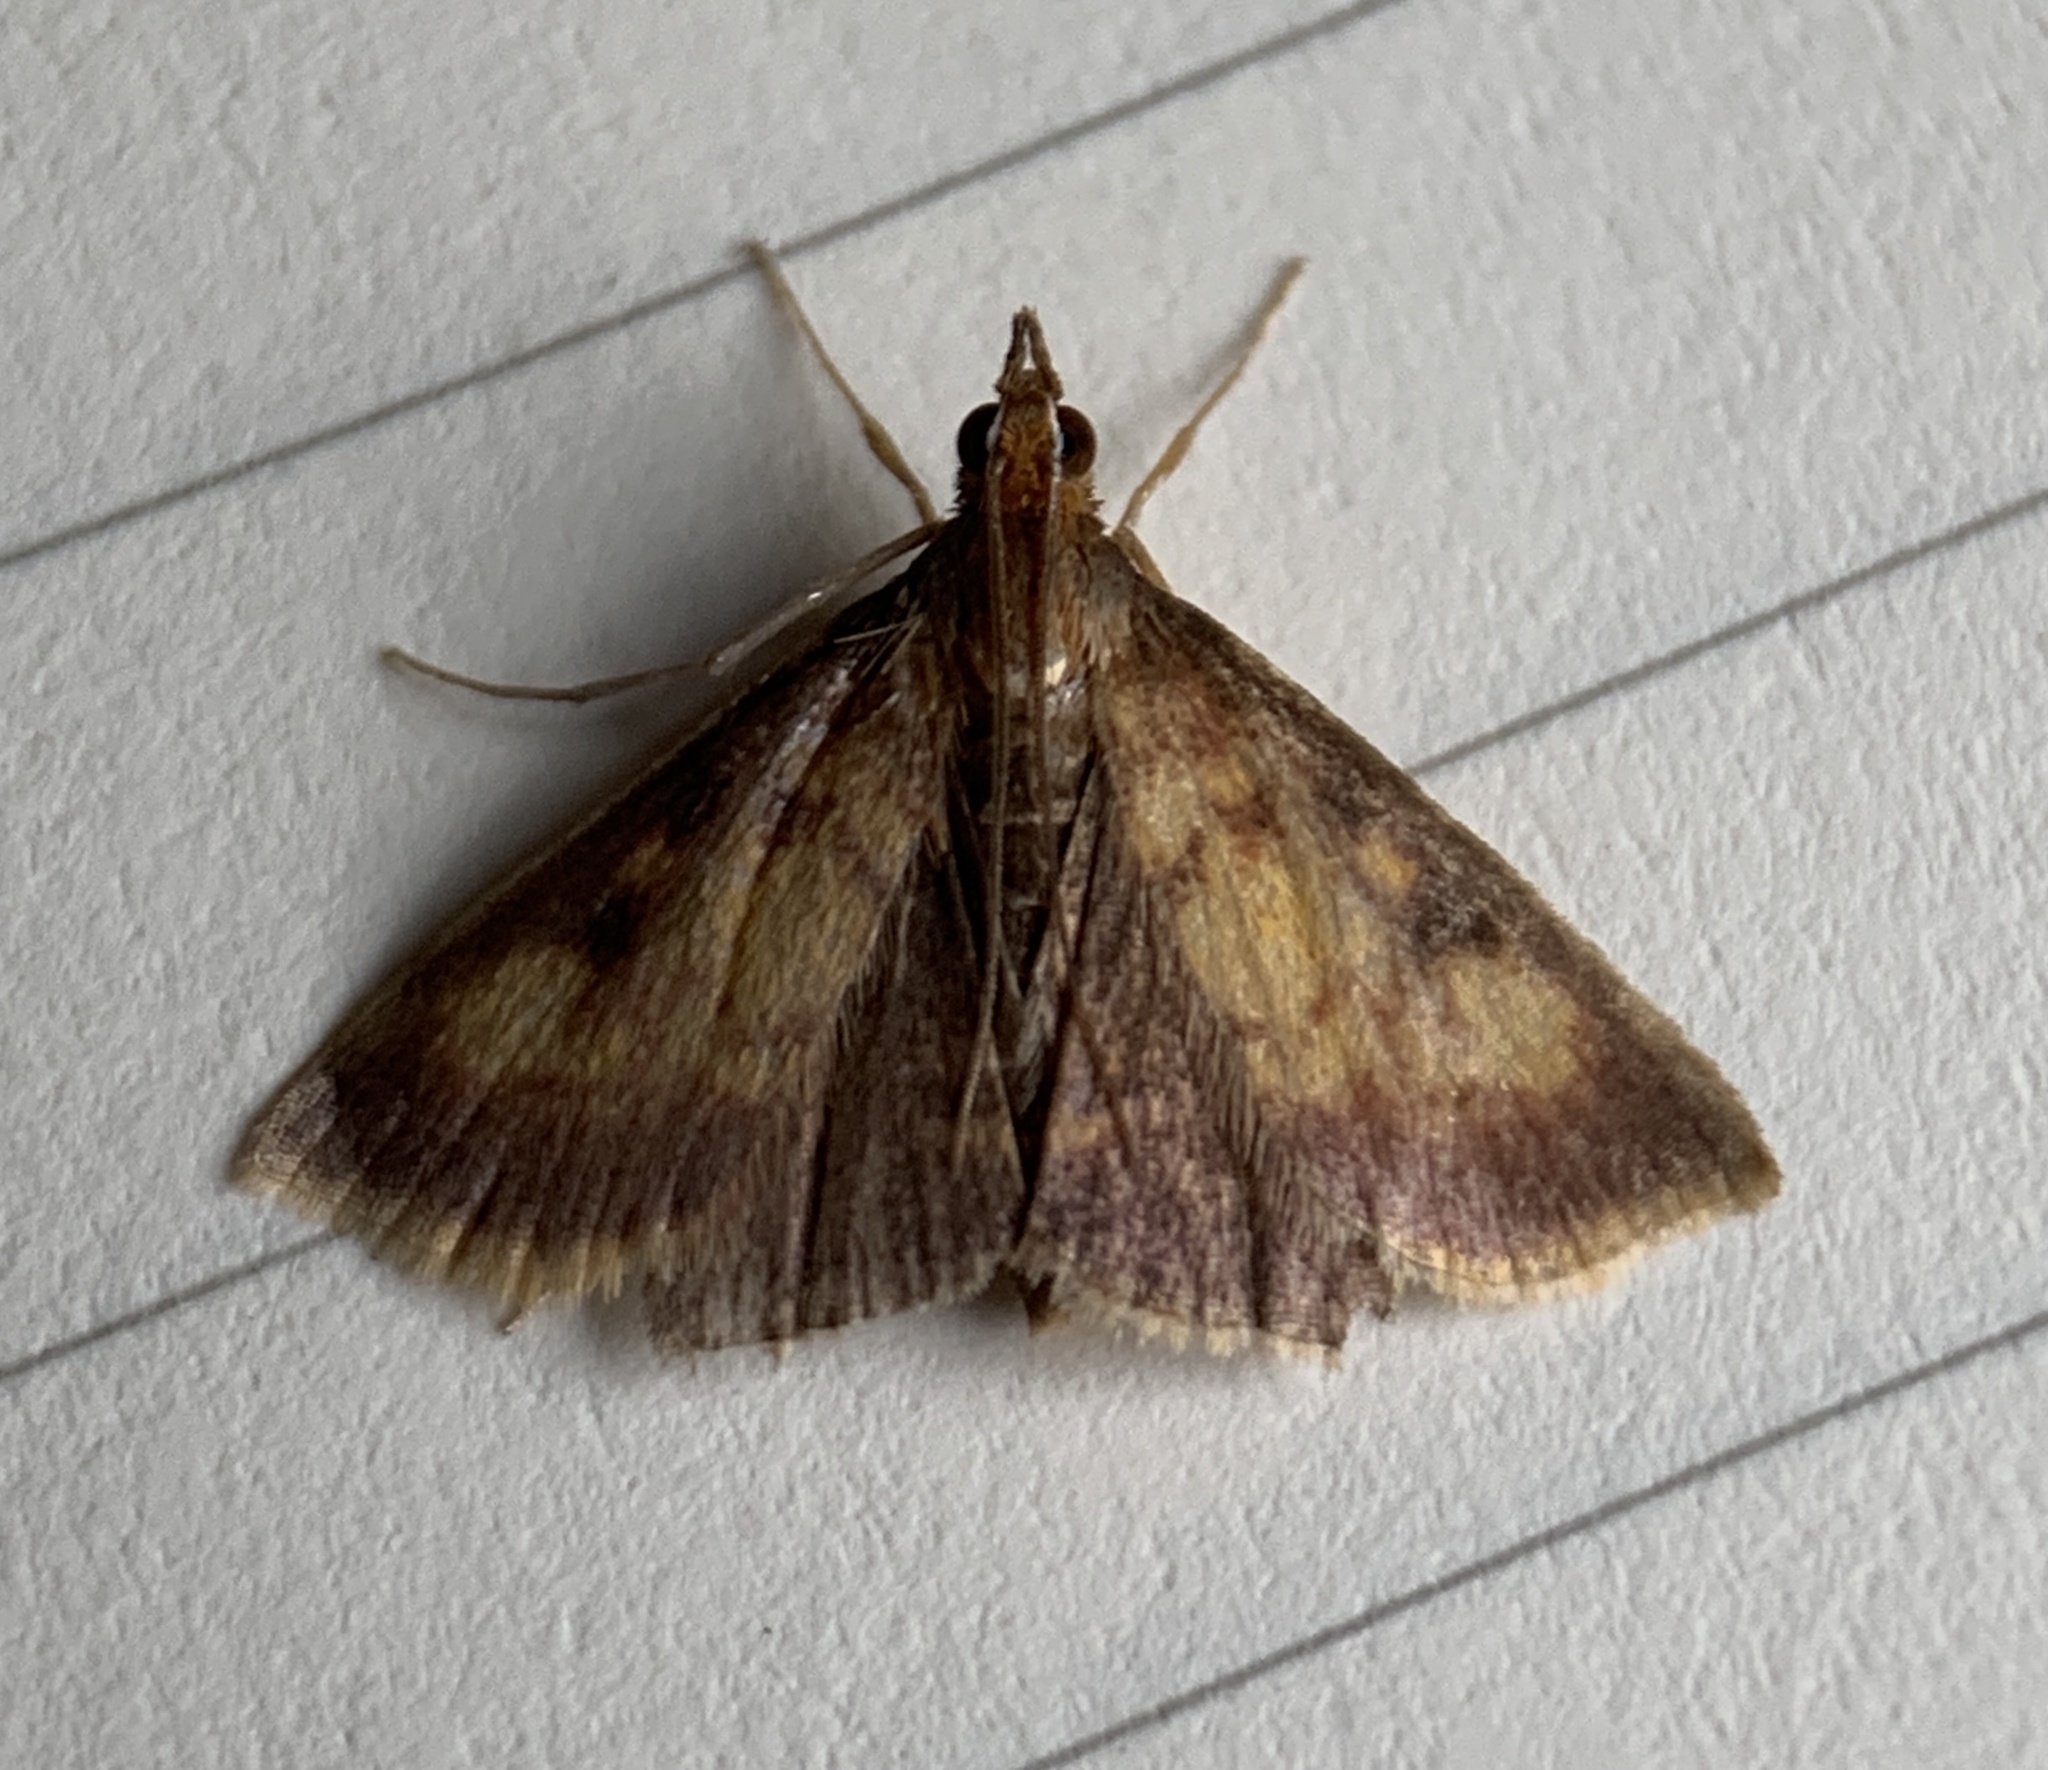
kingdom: Animalia
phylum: Arthropoda
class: Insecta
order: Lepidoptera
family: Crambidae
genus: Pyrausta
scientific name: Pyrausta acrionalis
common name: Mint-loving pyrausta moth
